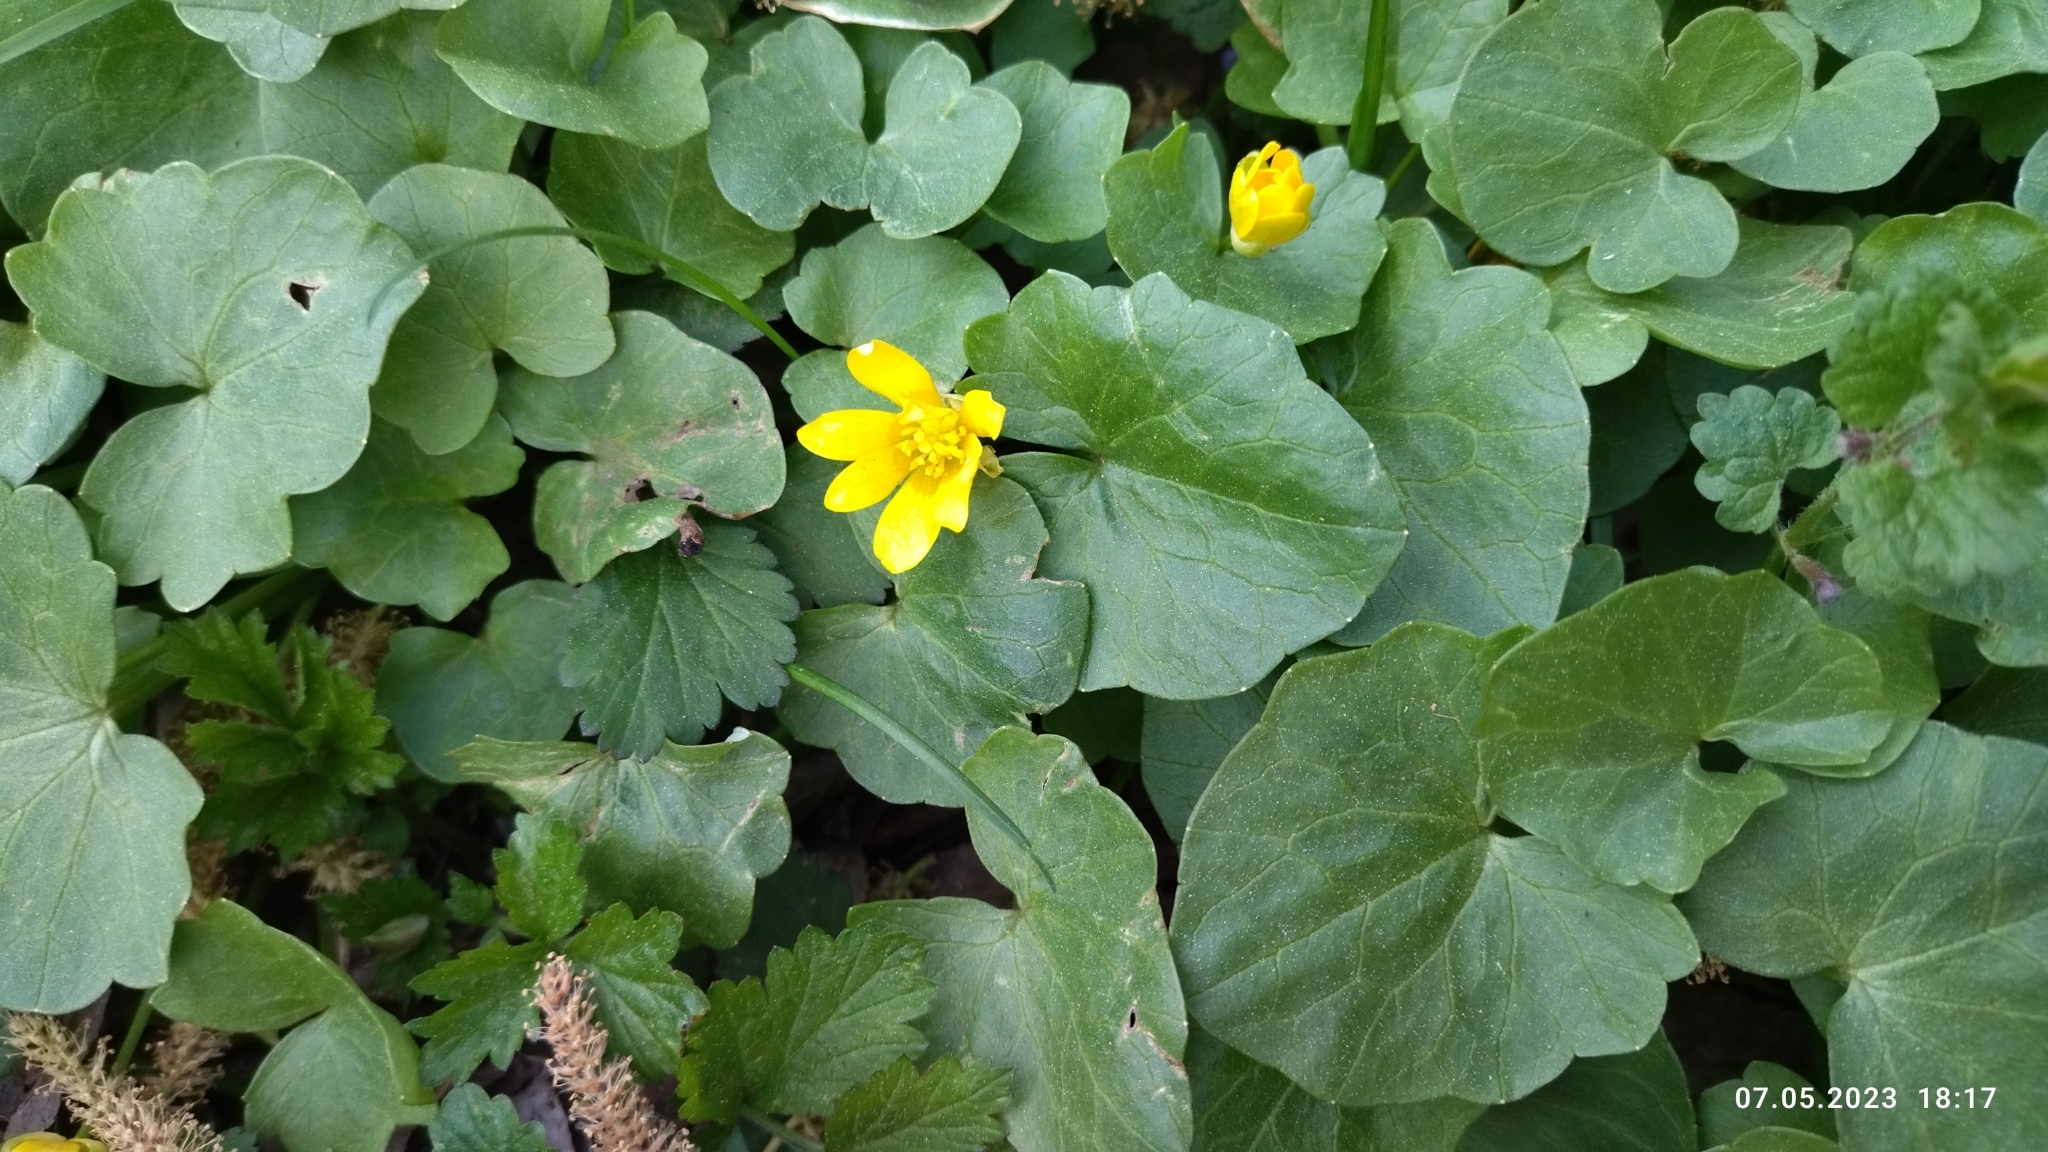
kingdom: Plantae
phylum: Tracheophyta
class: Magnoliopsida
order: Ranunculales
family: Ranunculaceae
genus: Ficaria
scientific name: Ficaria verna
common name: Lesser celandine
